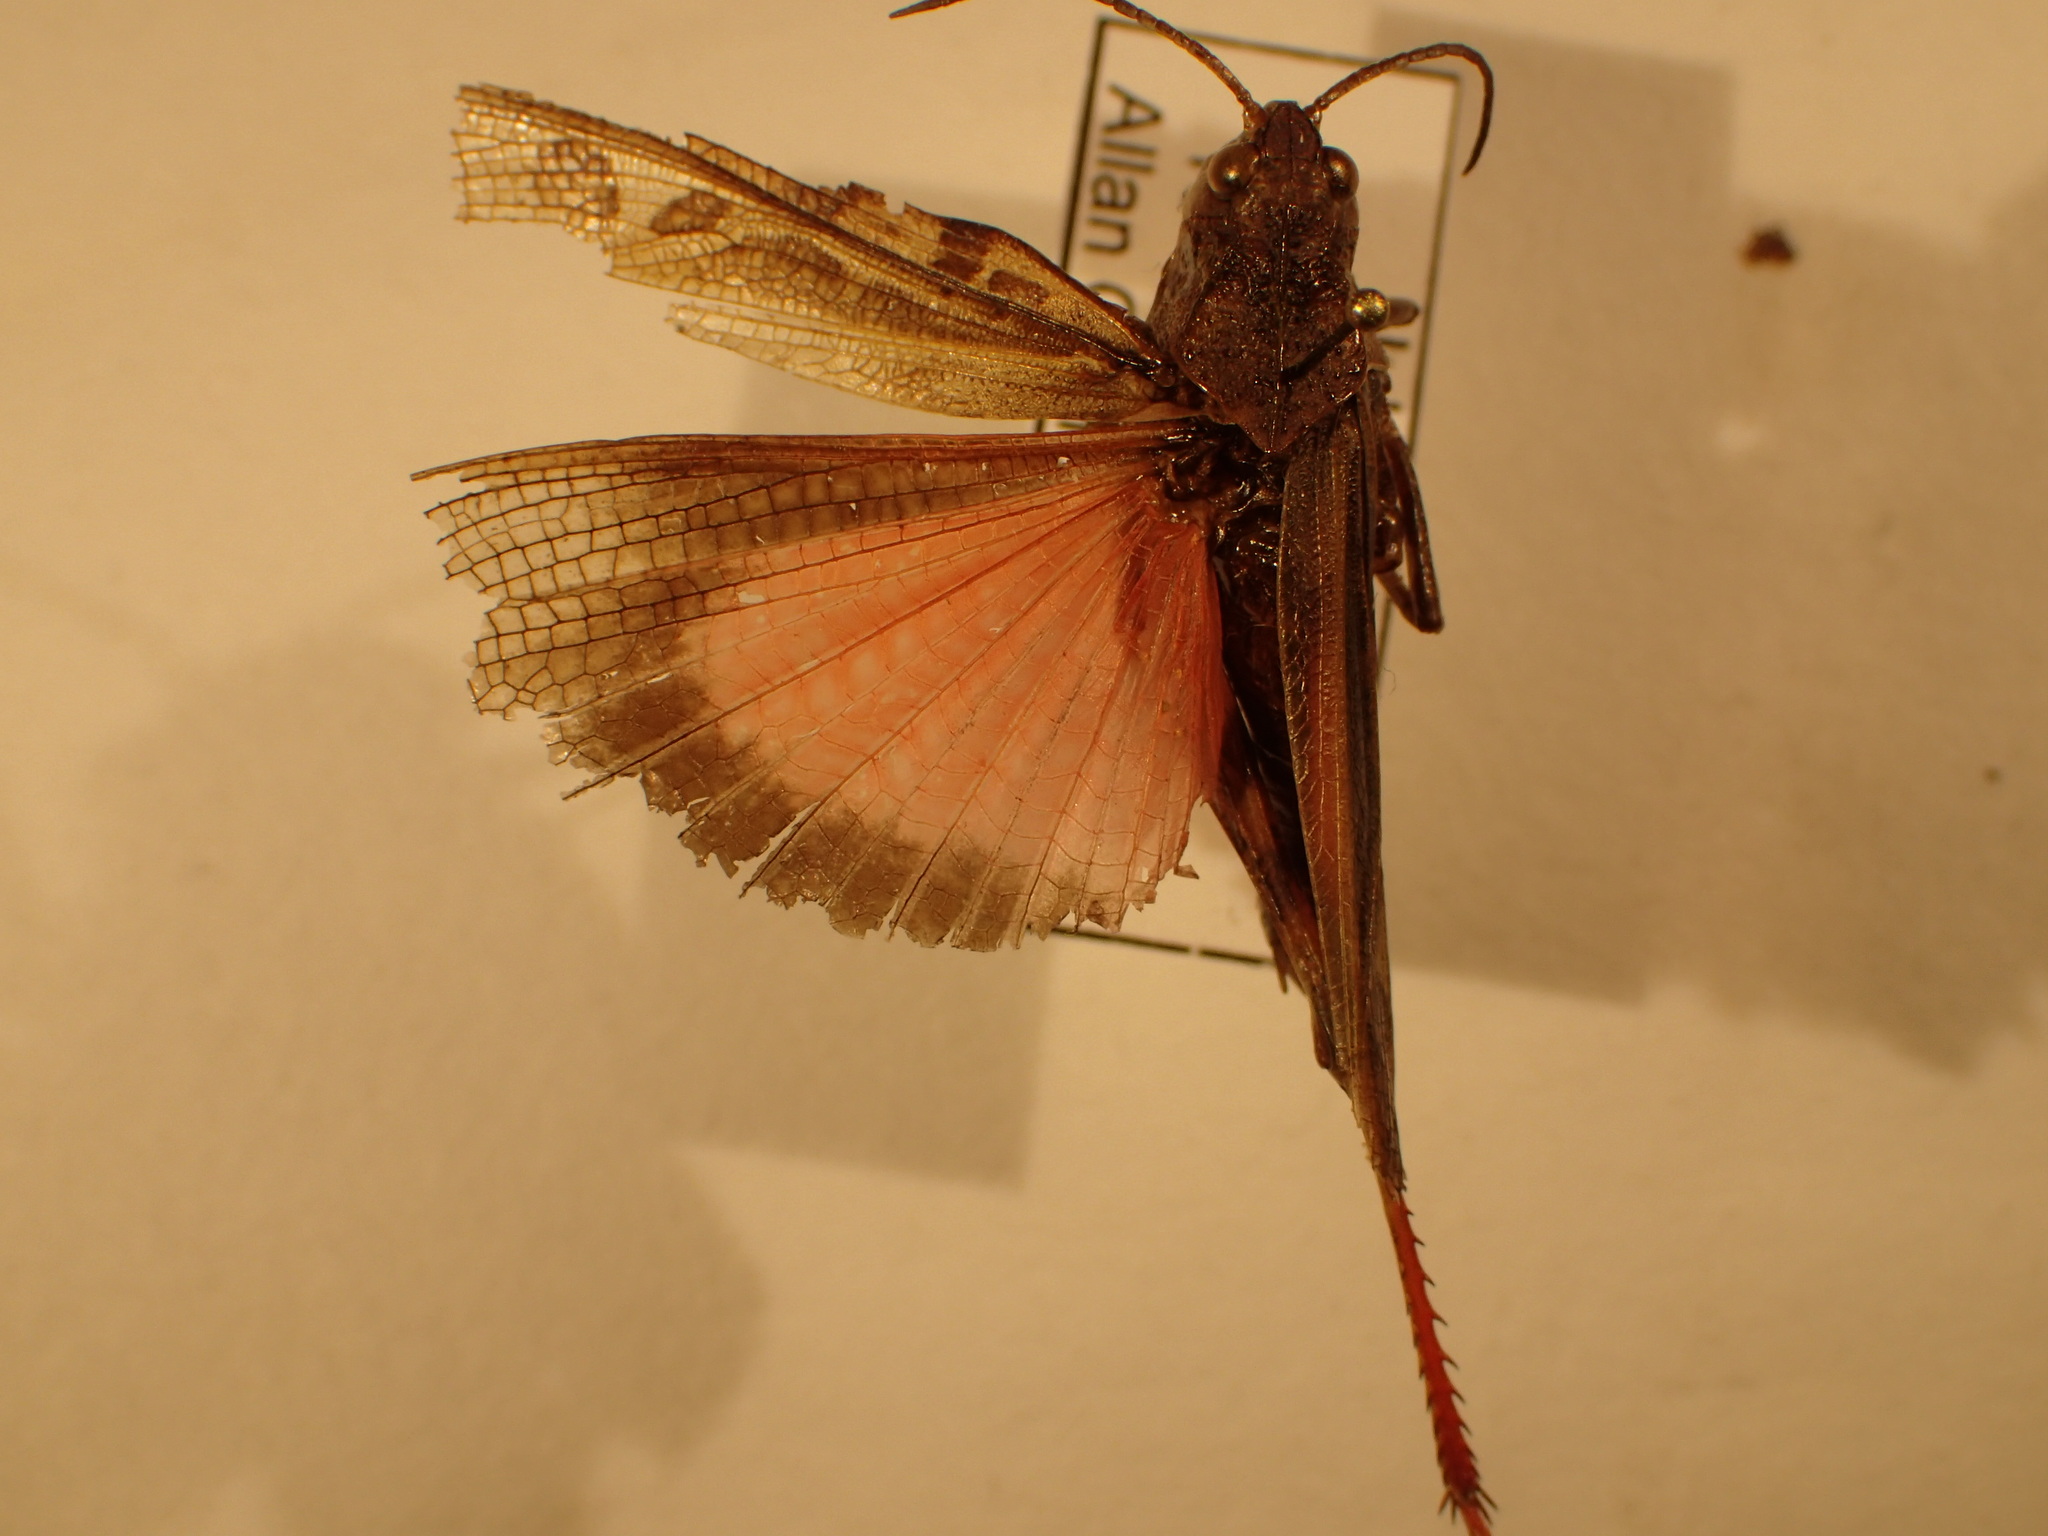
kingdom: Animalia
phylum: Arthropoda
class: Insecta
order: Orthoptera
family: Acrididae
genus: Pardalophora
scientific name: Pardalophora apiculata
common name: Coral-winged locust
